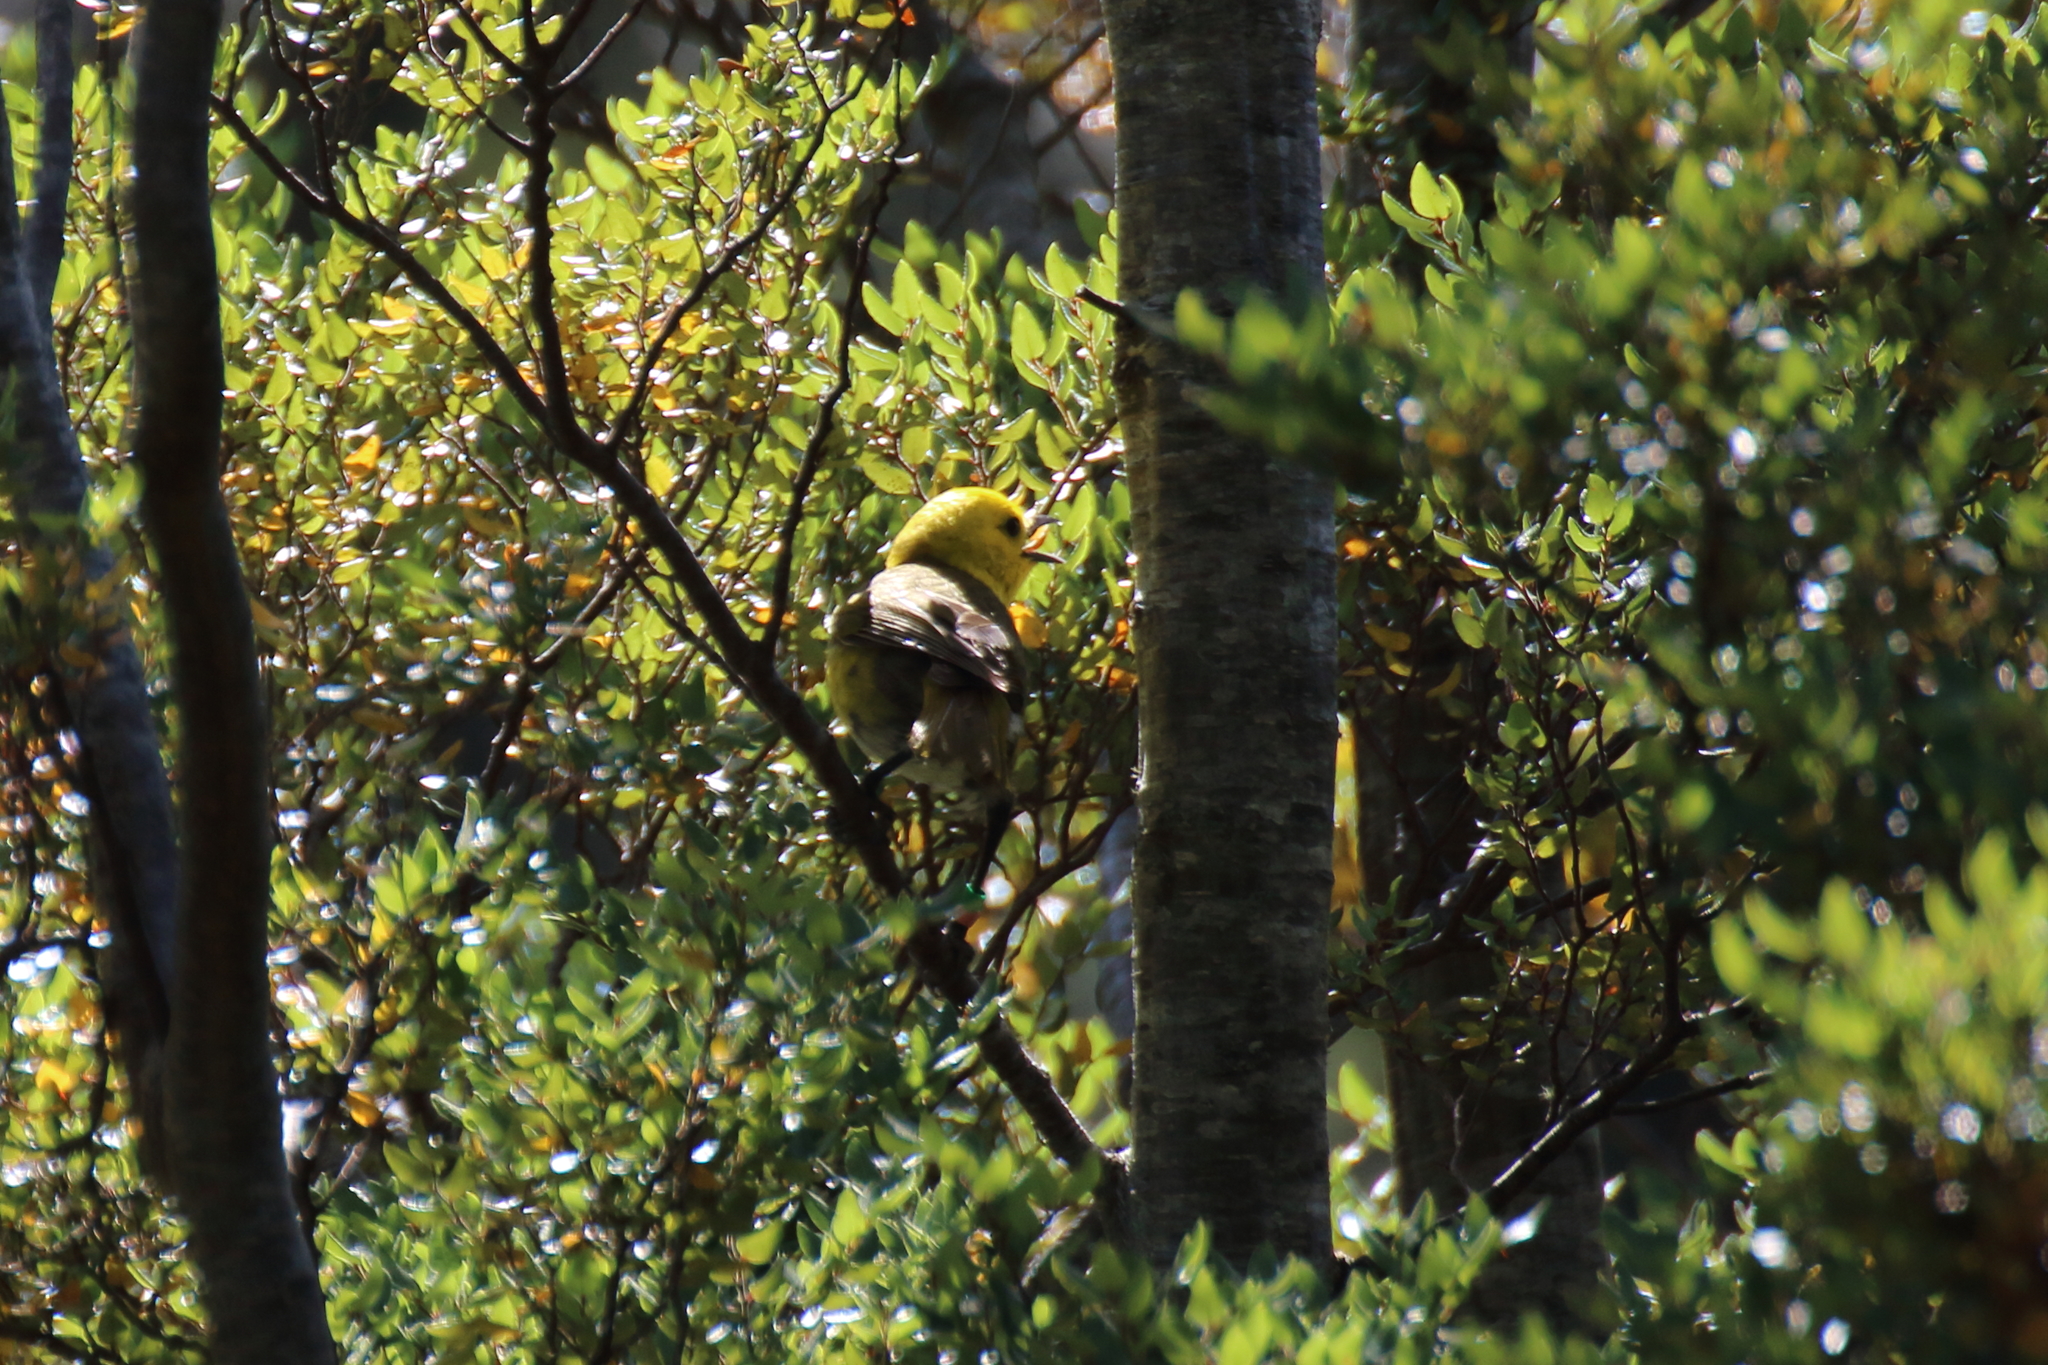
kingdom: Animalia
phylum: Chordata
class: Aves
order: Passeriformes
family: Acanthizidae
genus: Mohoua
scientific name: Mohoua ochrocephala
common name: Yellowhead
